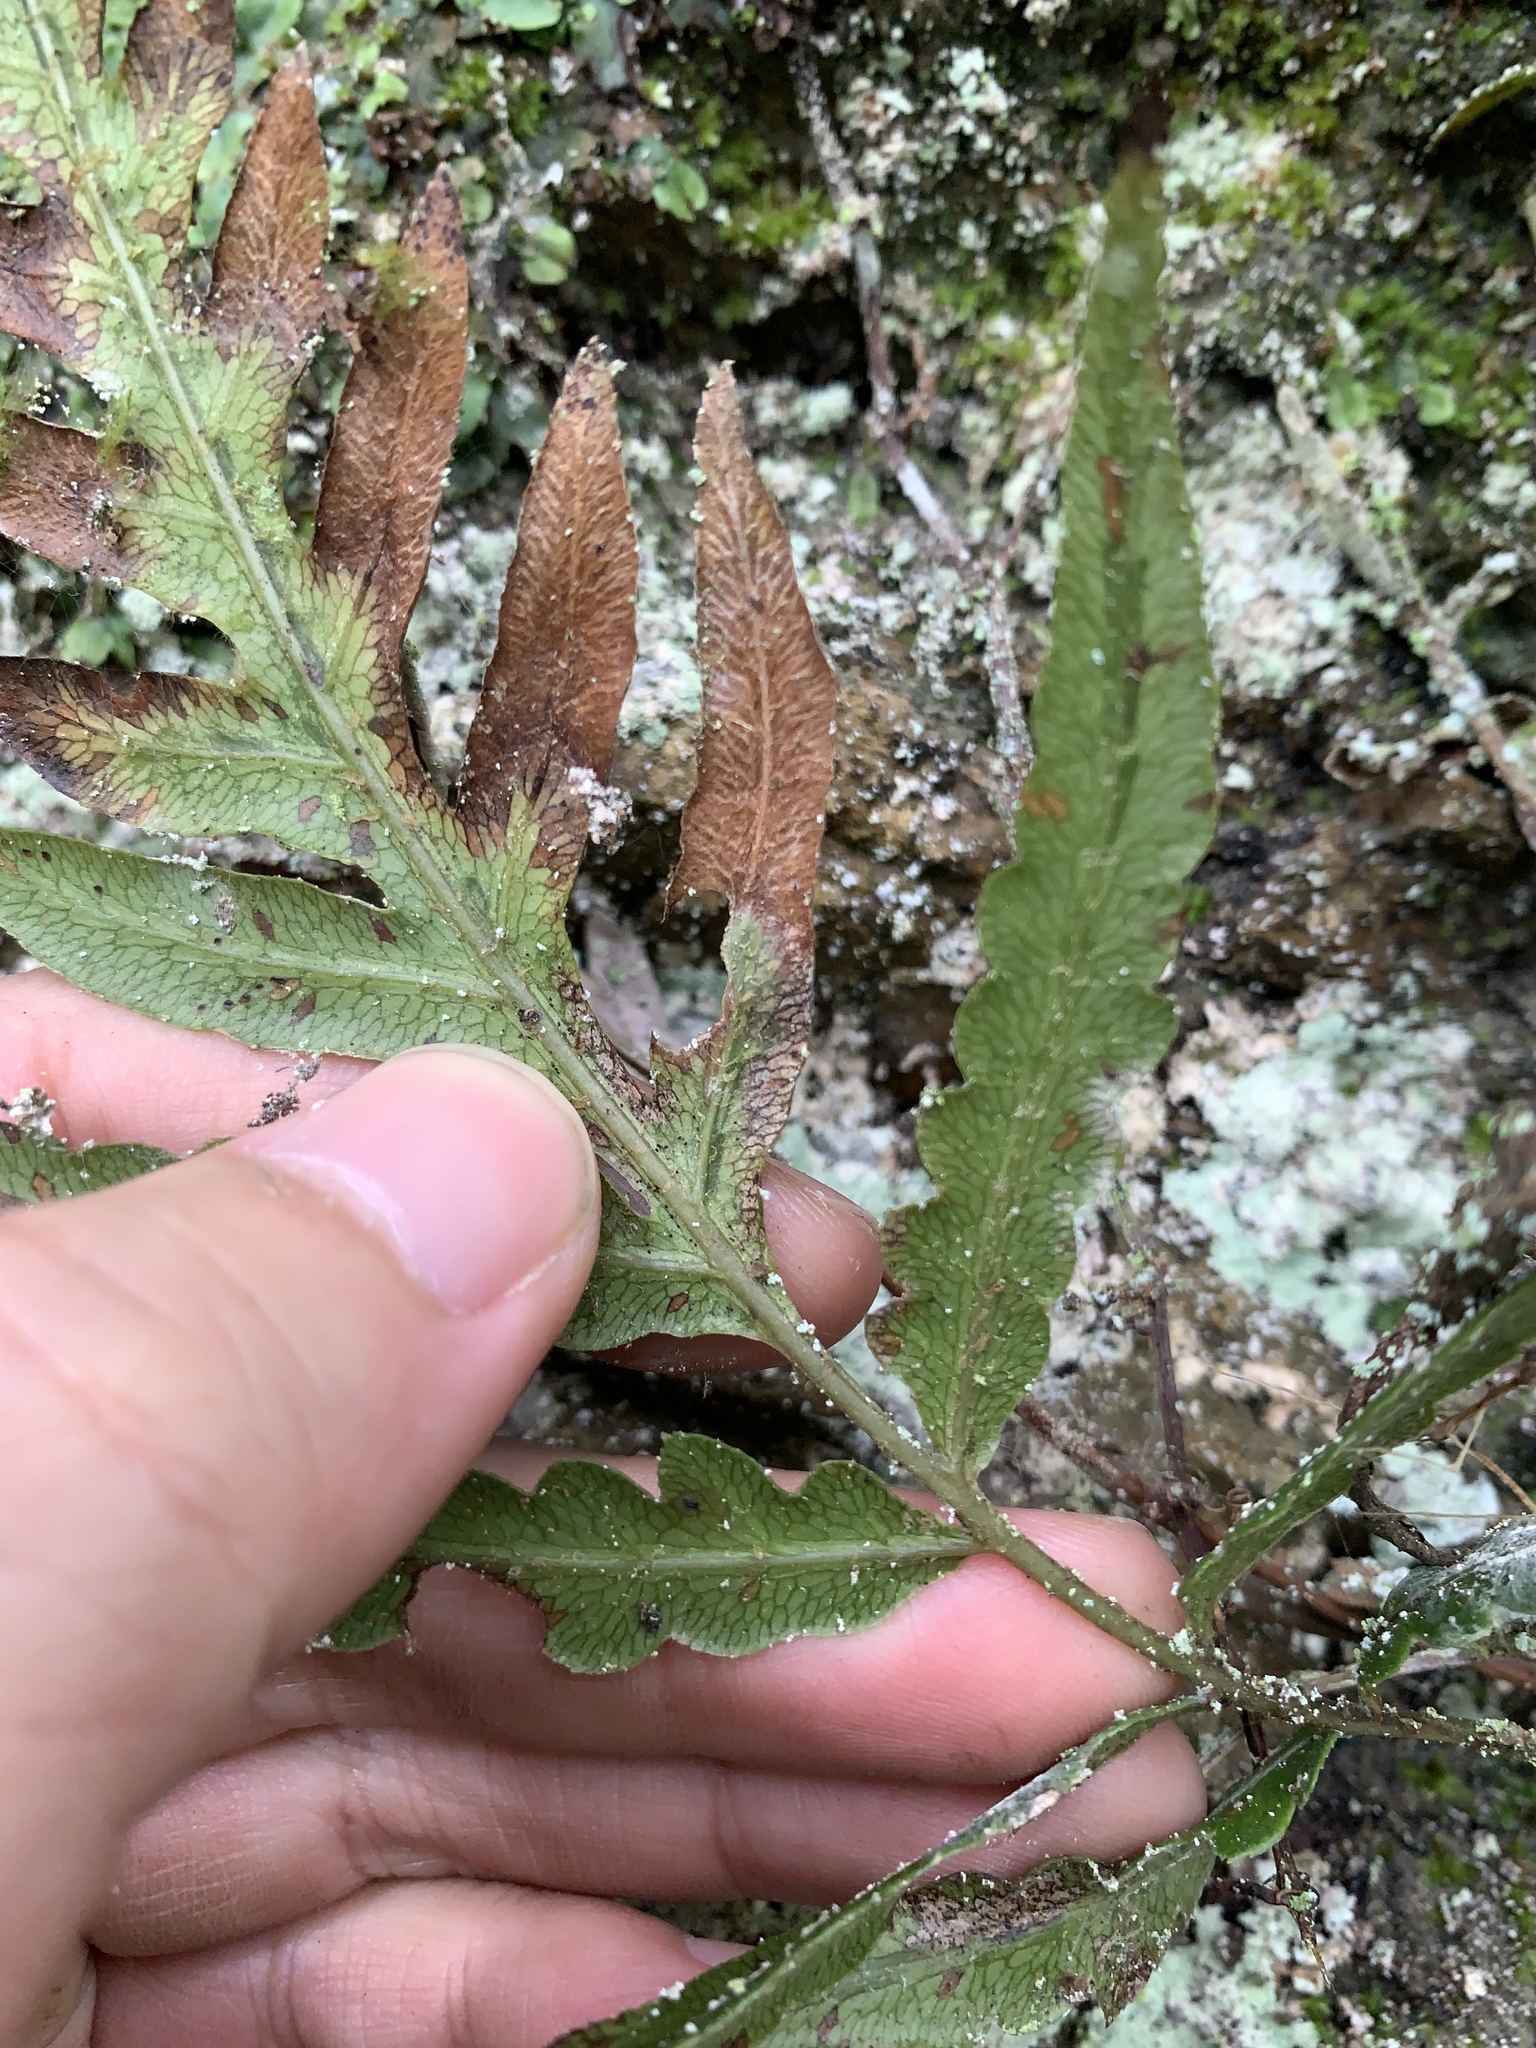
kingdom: Plantae
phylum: Tracheophyta
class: Polypodiopsida
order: Polypodiales
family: Blechnaceae
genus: Woodwardia
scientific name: Woodwardia prolifera
